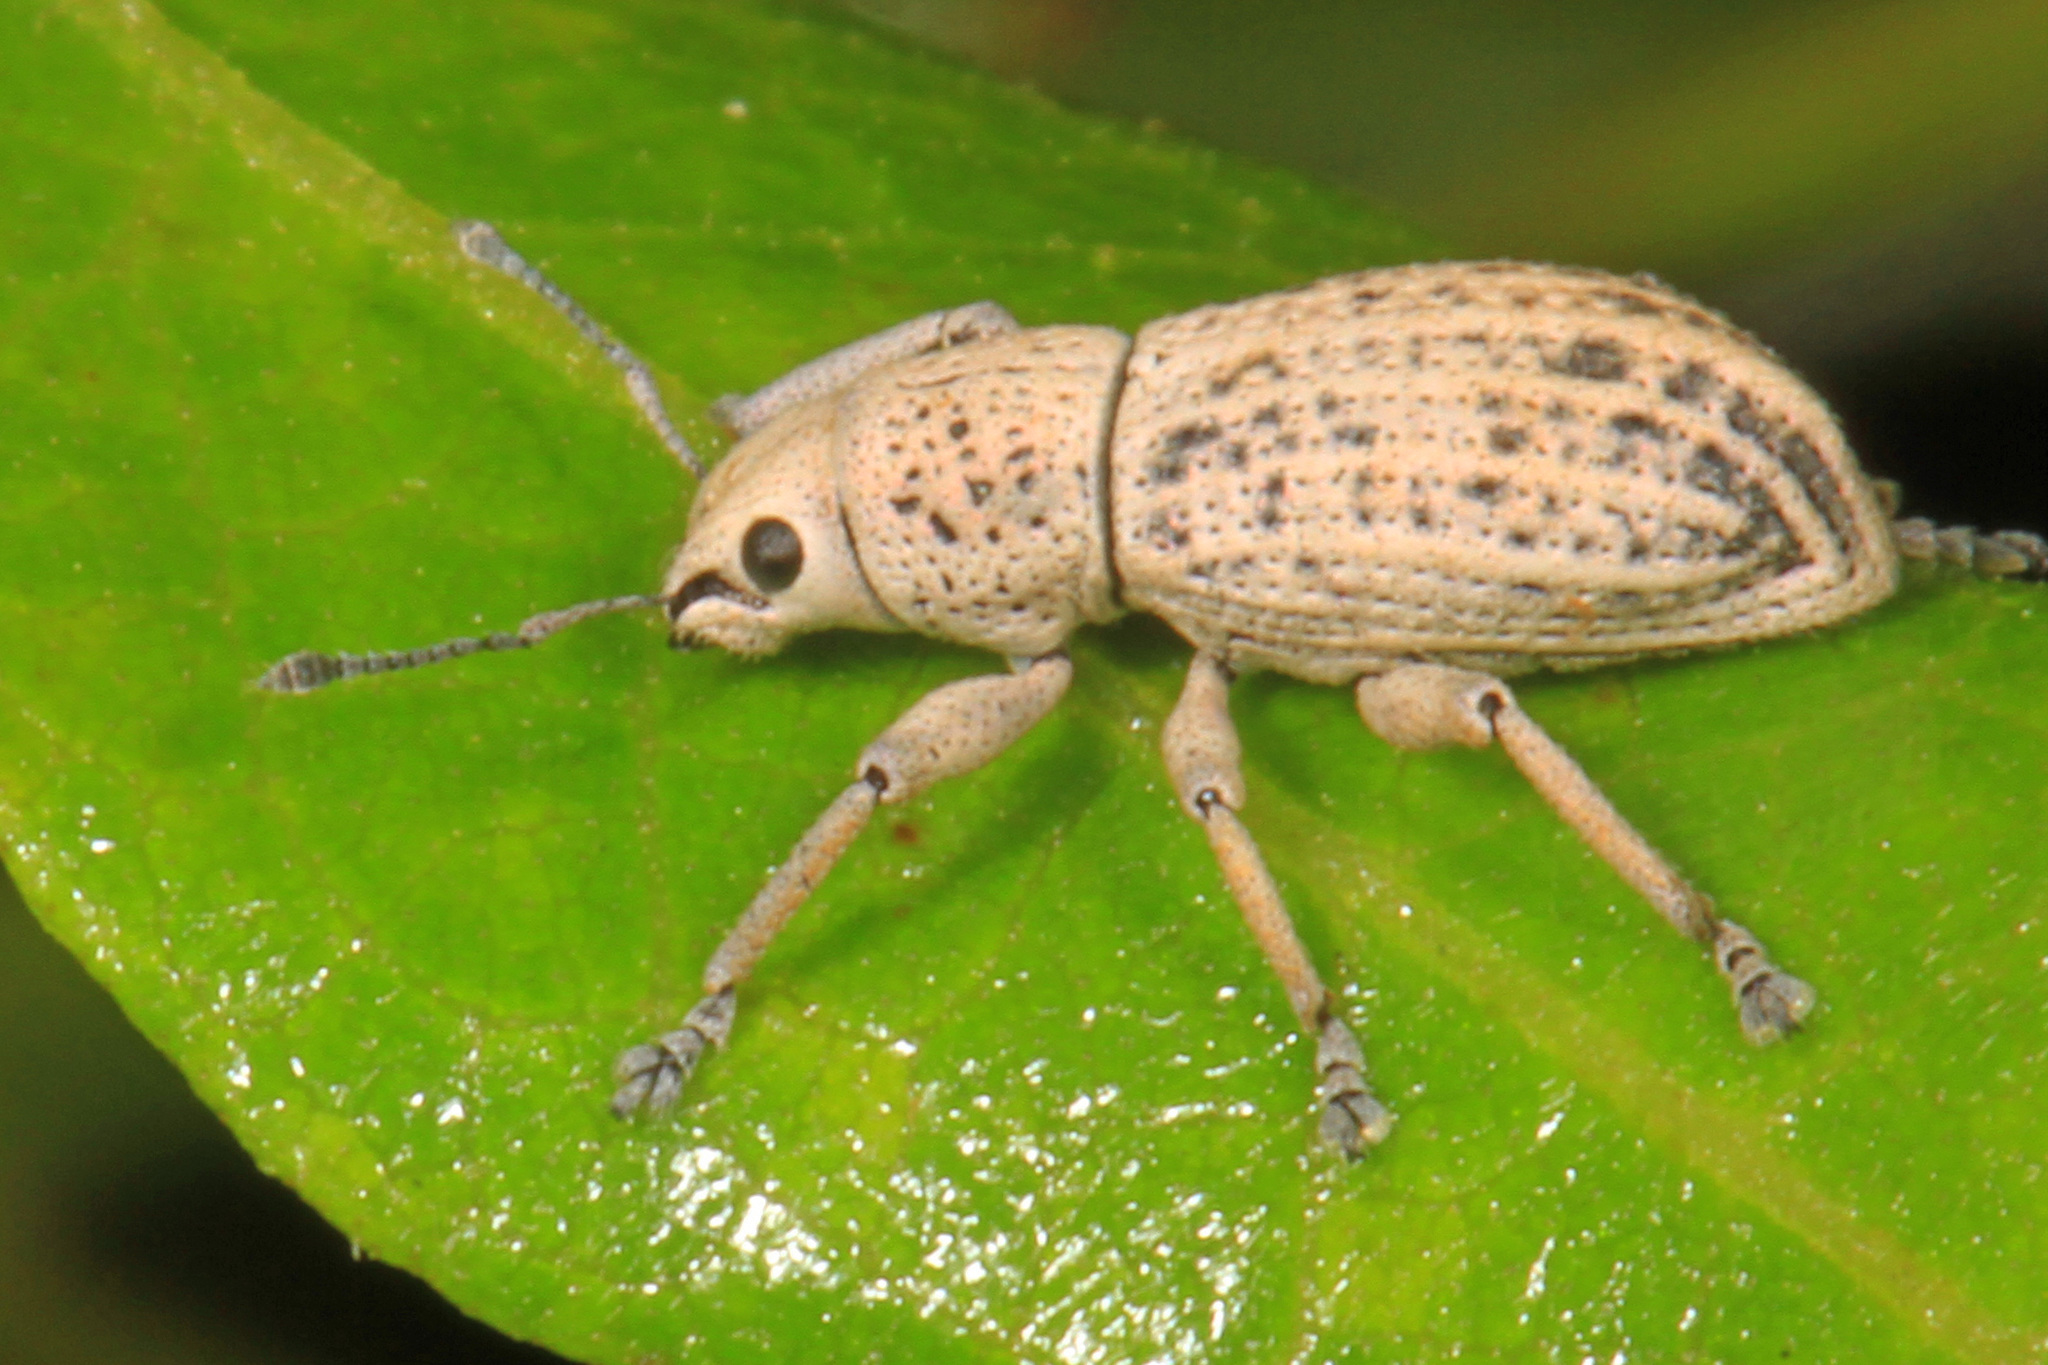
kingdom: Animalia
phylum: Arthropoda
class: Insecta
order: Coleoptera
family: Curculionidae
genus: Artipus
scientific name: Artipus floridanus
